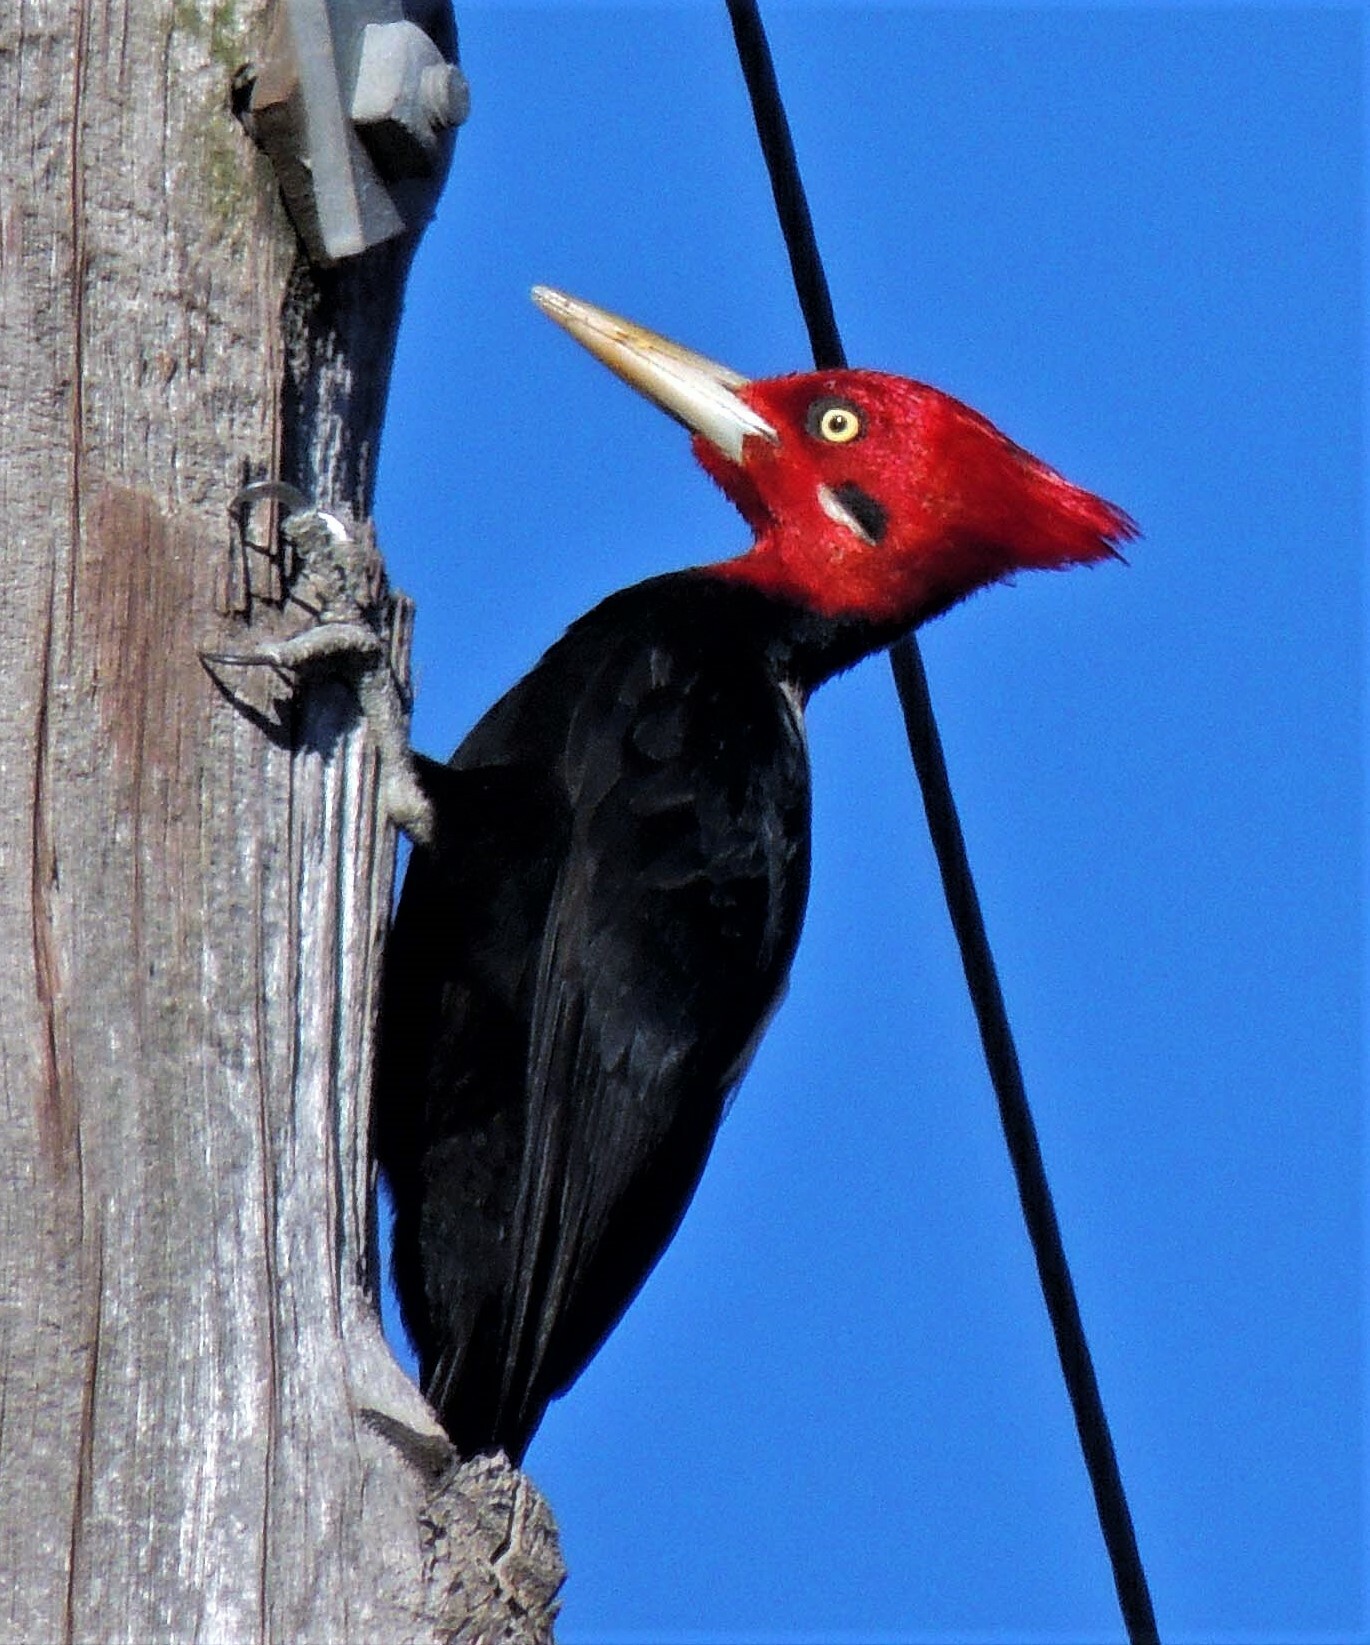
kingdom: Animalia
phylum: Chordata
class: Aves
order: Piciformes
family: Picidae
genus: Campephilus
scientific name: Campephilus leucopogon
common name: Cream-backed woodpecker
